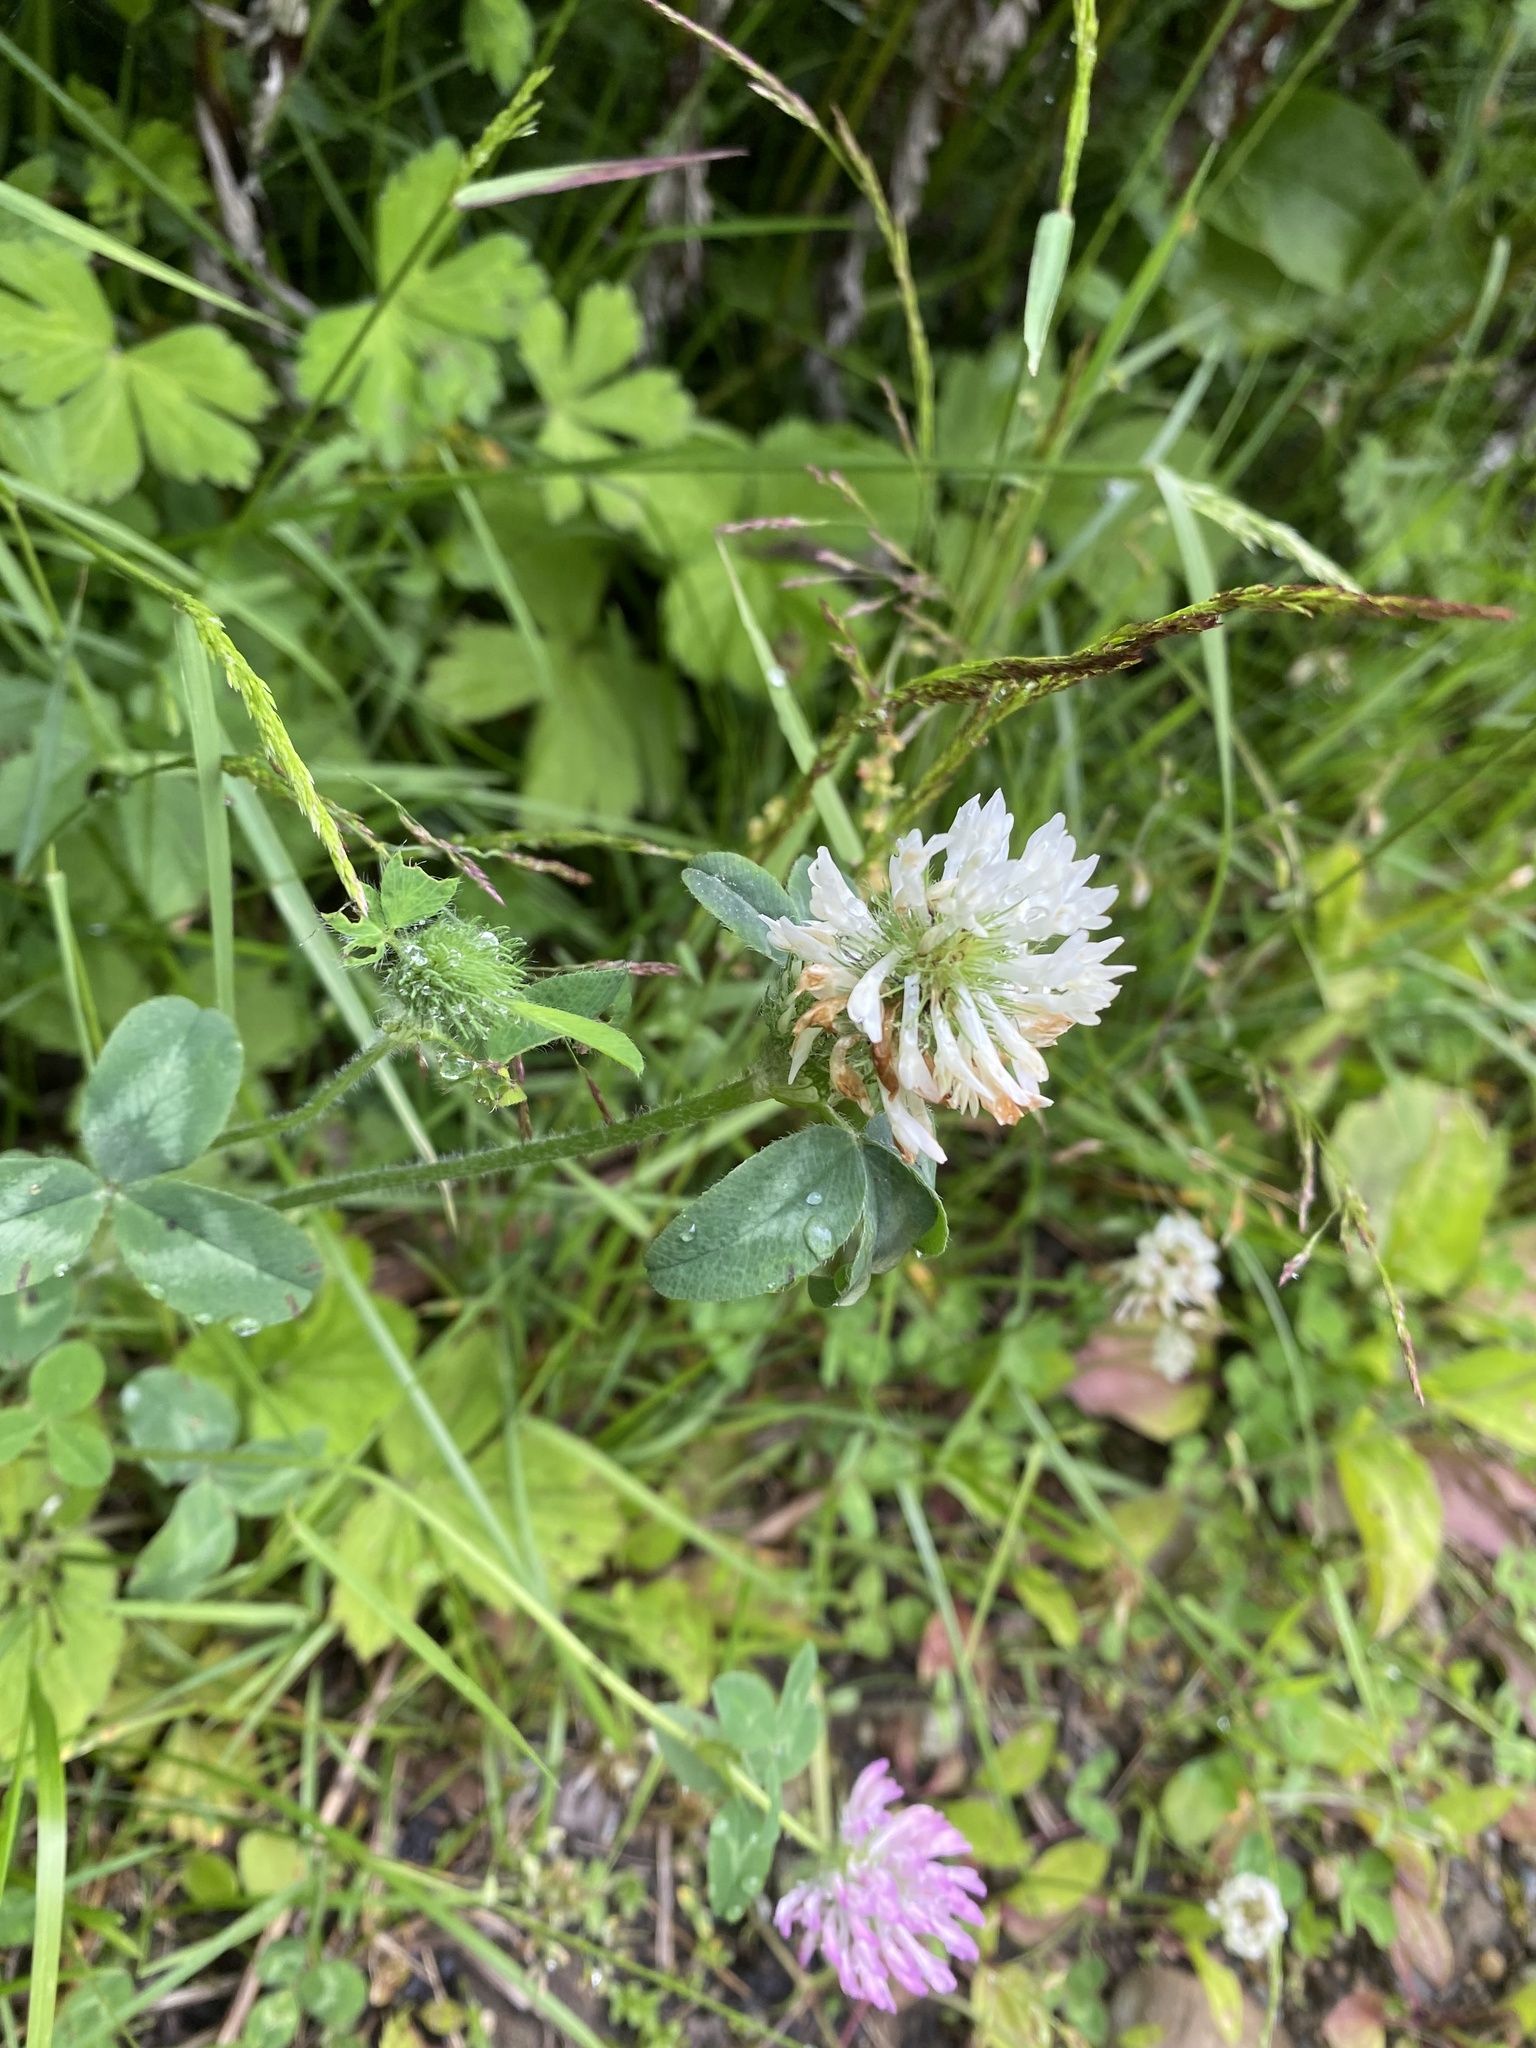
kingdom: Plantae
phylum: Tracheophyta
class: Magnoliopsida
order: Fabales
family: Fabaceae
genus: Trifolium
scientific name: Trifolium pratense
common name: Red clover
